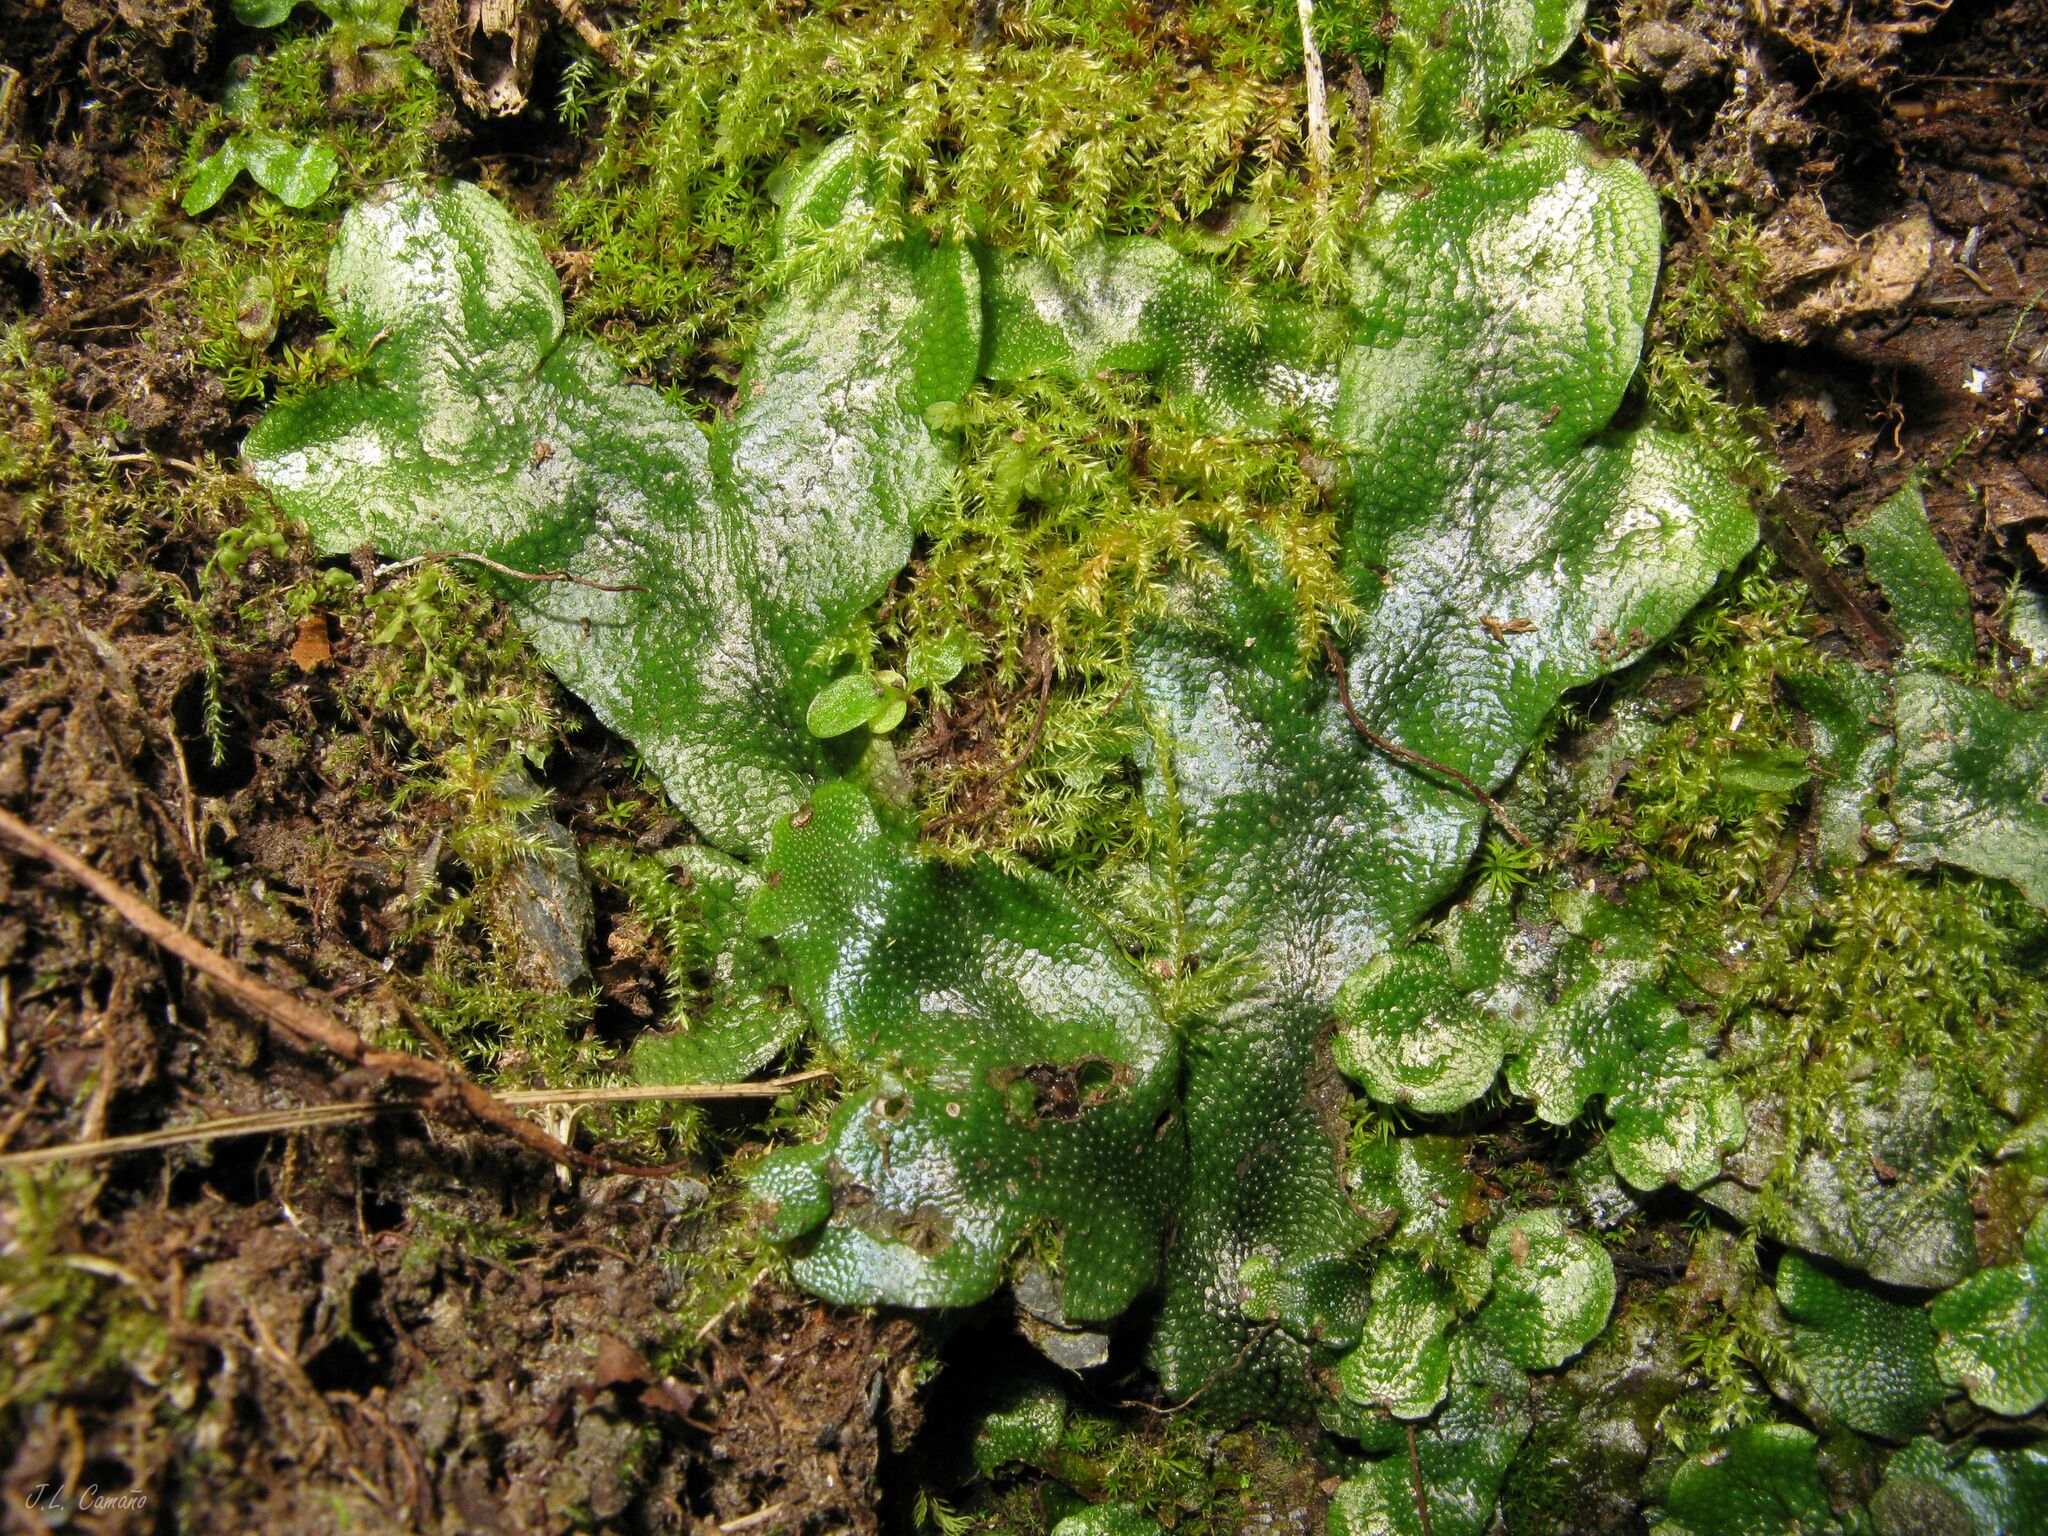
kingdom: Plantae
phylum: Marchantiophyta
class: Marchantiopsida
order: Marchantiales
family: Conocephalaceae
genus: Conocephalum
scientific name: Conocephalum conicum
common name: Great scented liverwort
